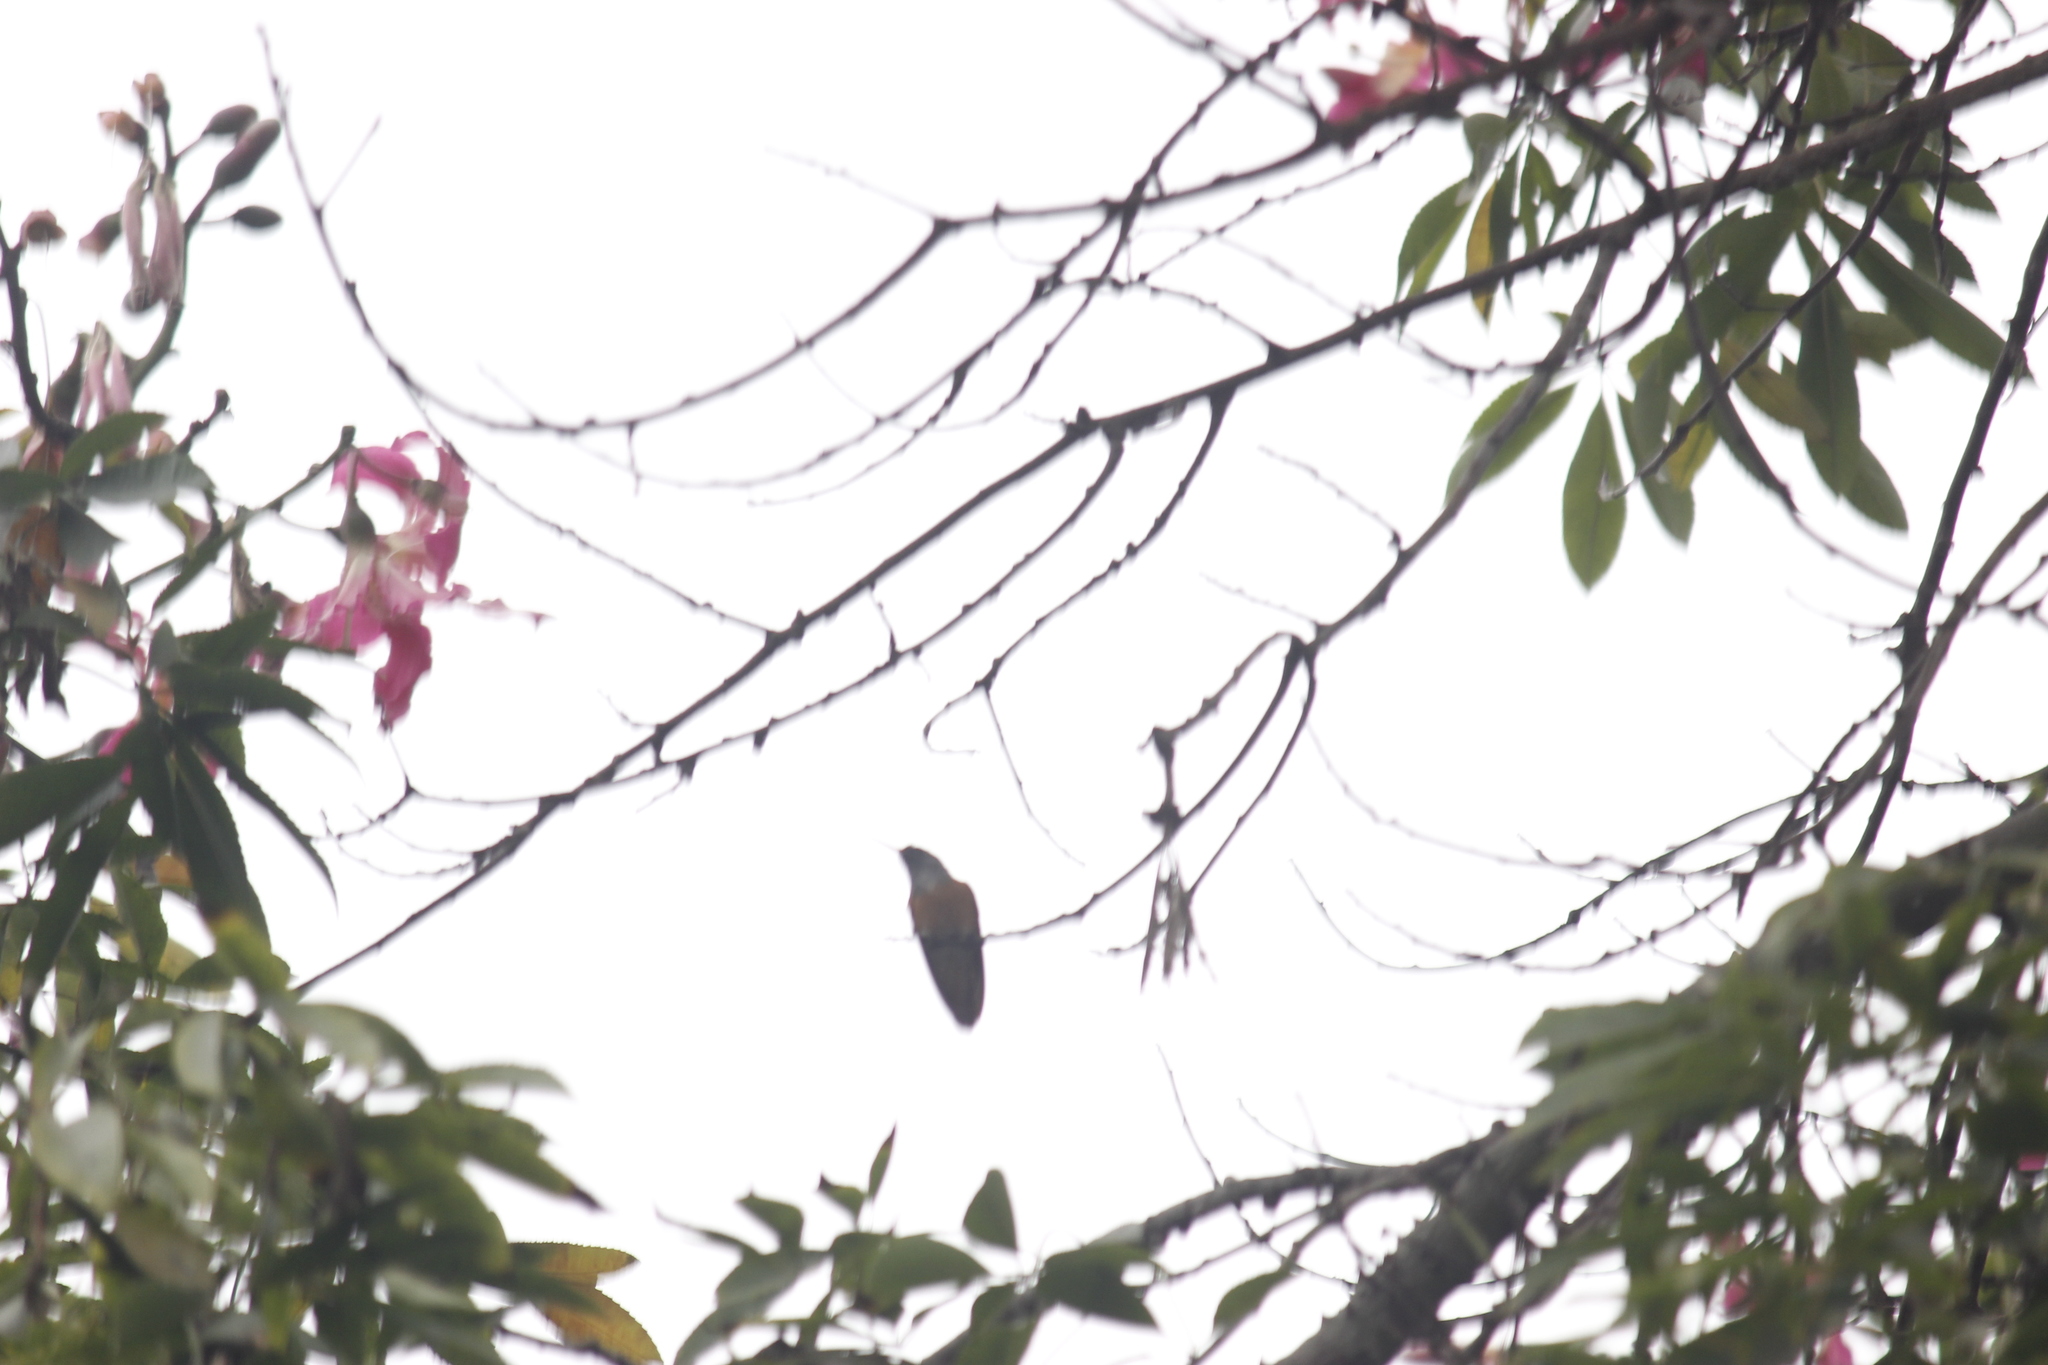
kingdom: Animalia
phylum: Chordata
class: Aves
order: Apodiformes
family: Trochilidae
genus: Amazilis
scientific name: Amazilis amazilia
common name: Amazilia hummingbird
